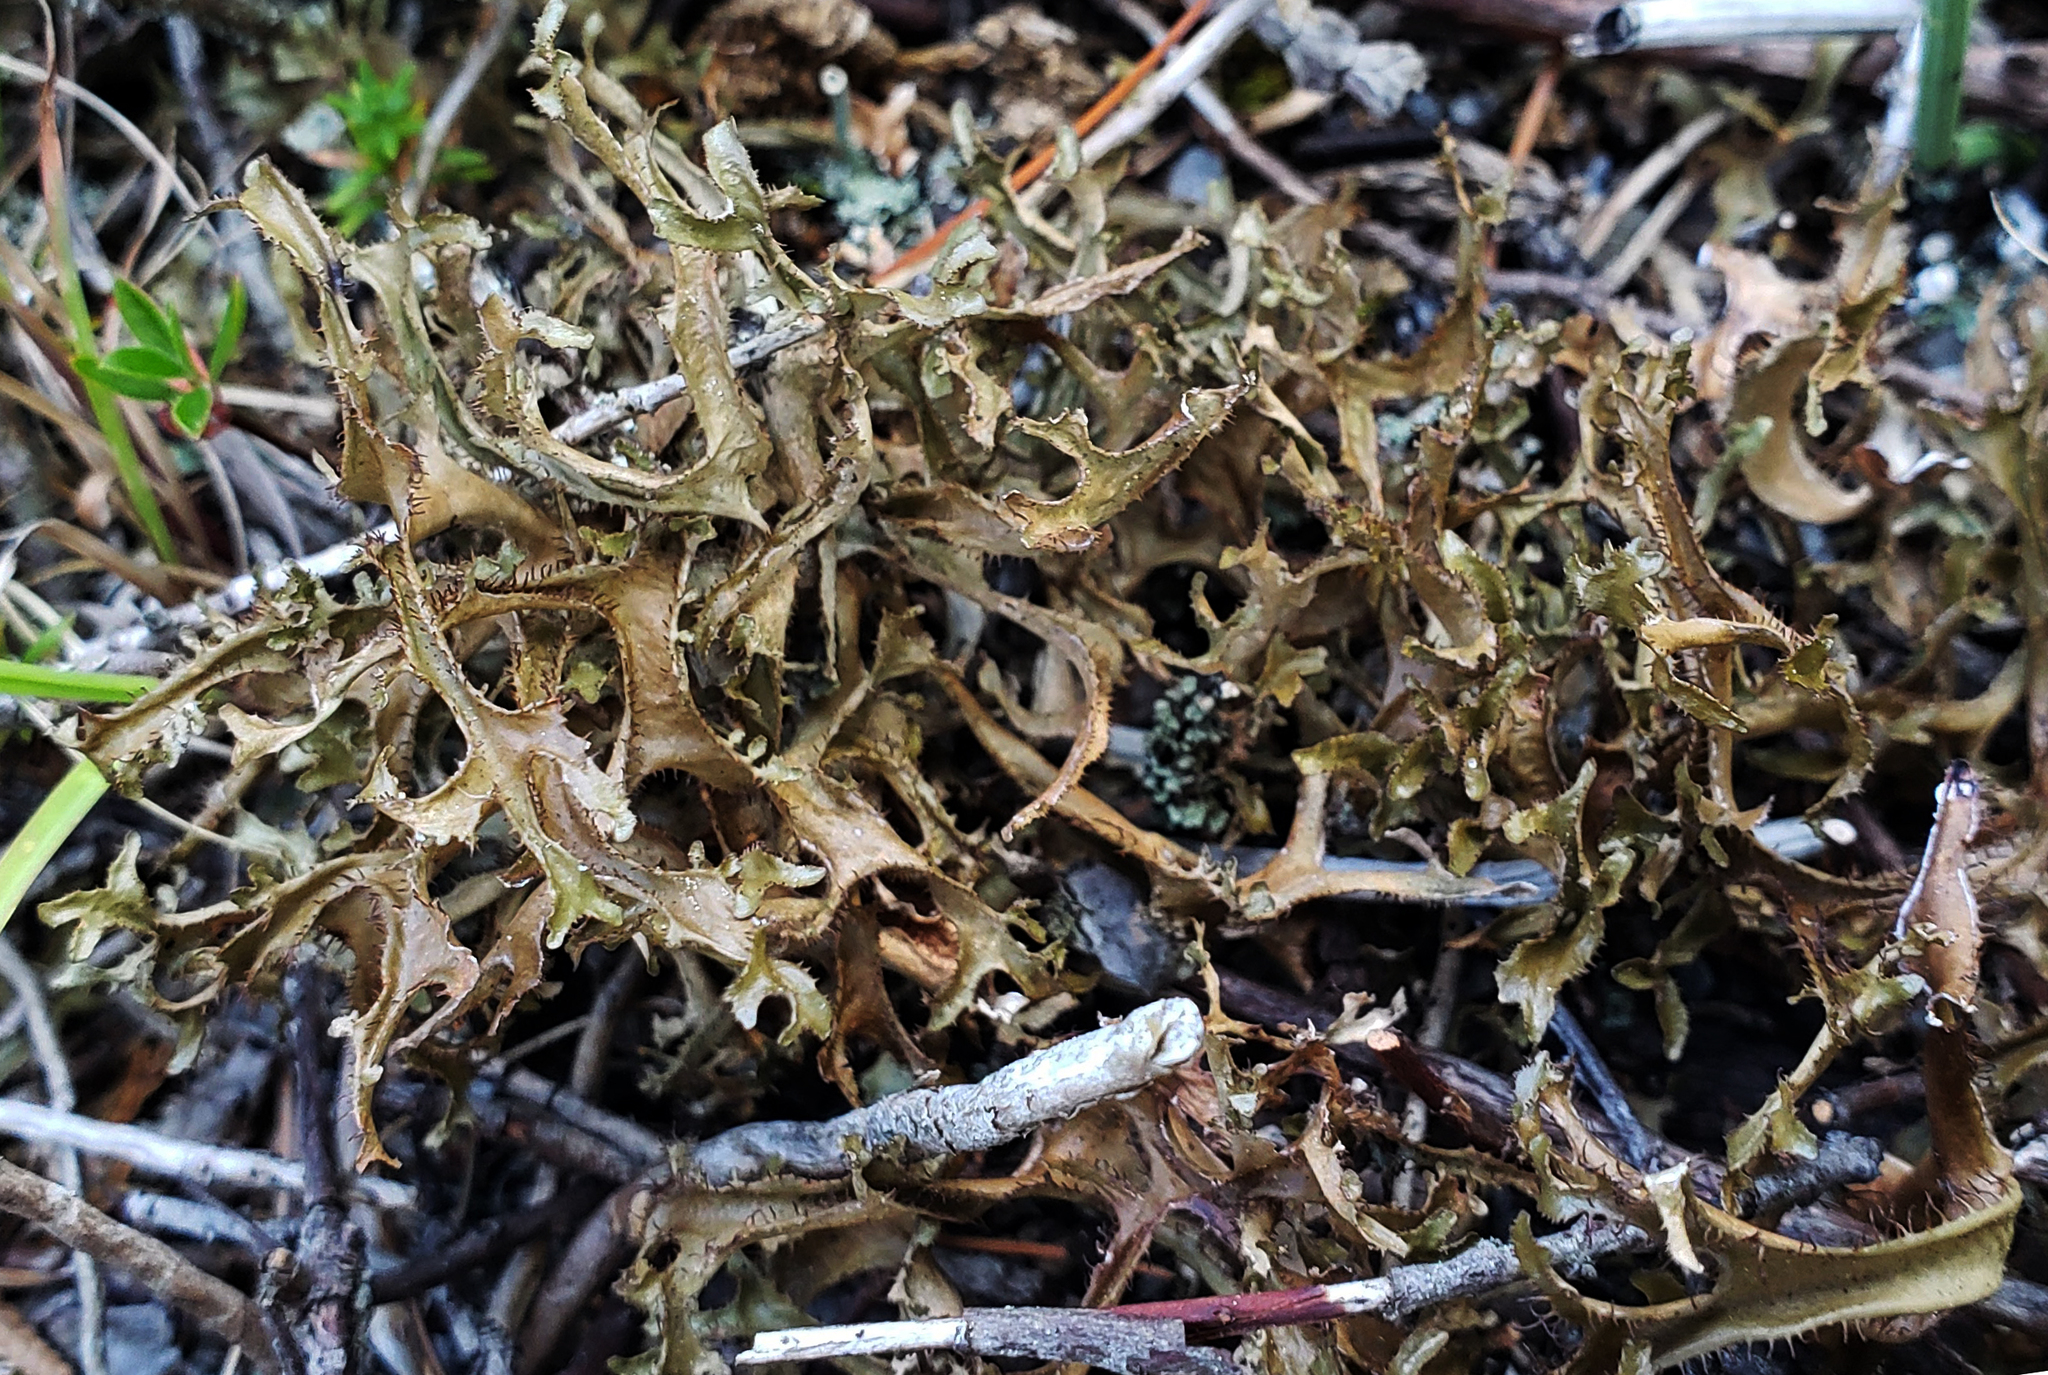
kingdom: Fungi
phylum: Ascomycota
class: Lecanoromycetes
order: Lecanorales
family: Parmeliaceae
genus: Cetraria
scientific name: Cetraria arenaria
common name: Sand-loving iceland lichen
